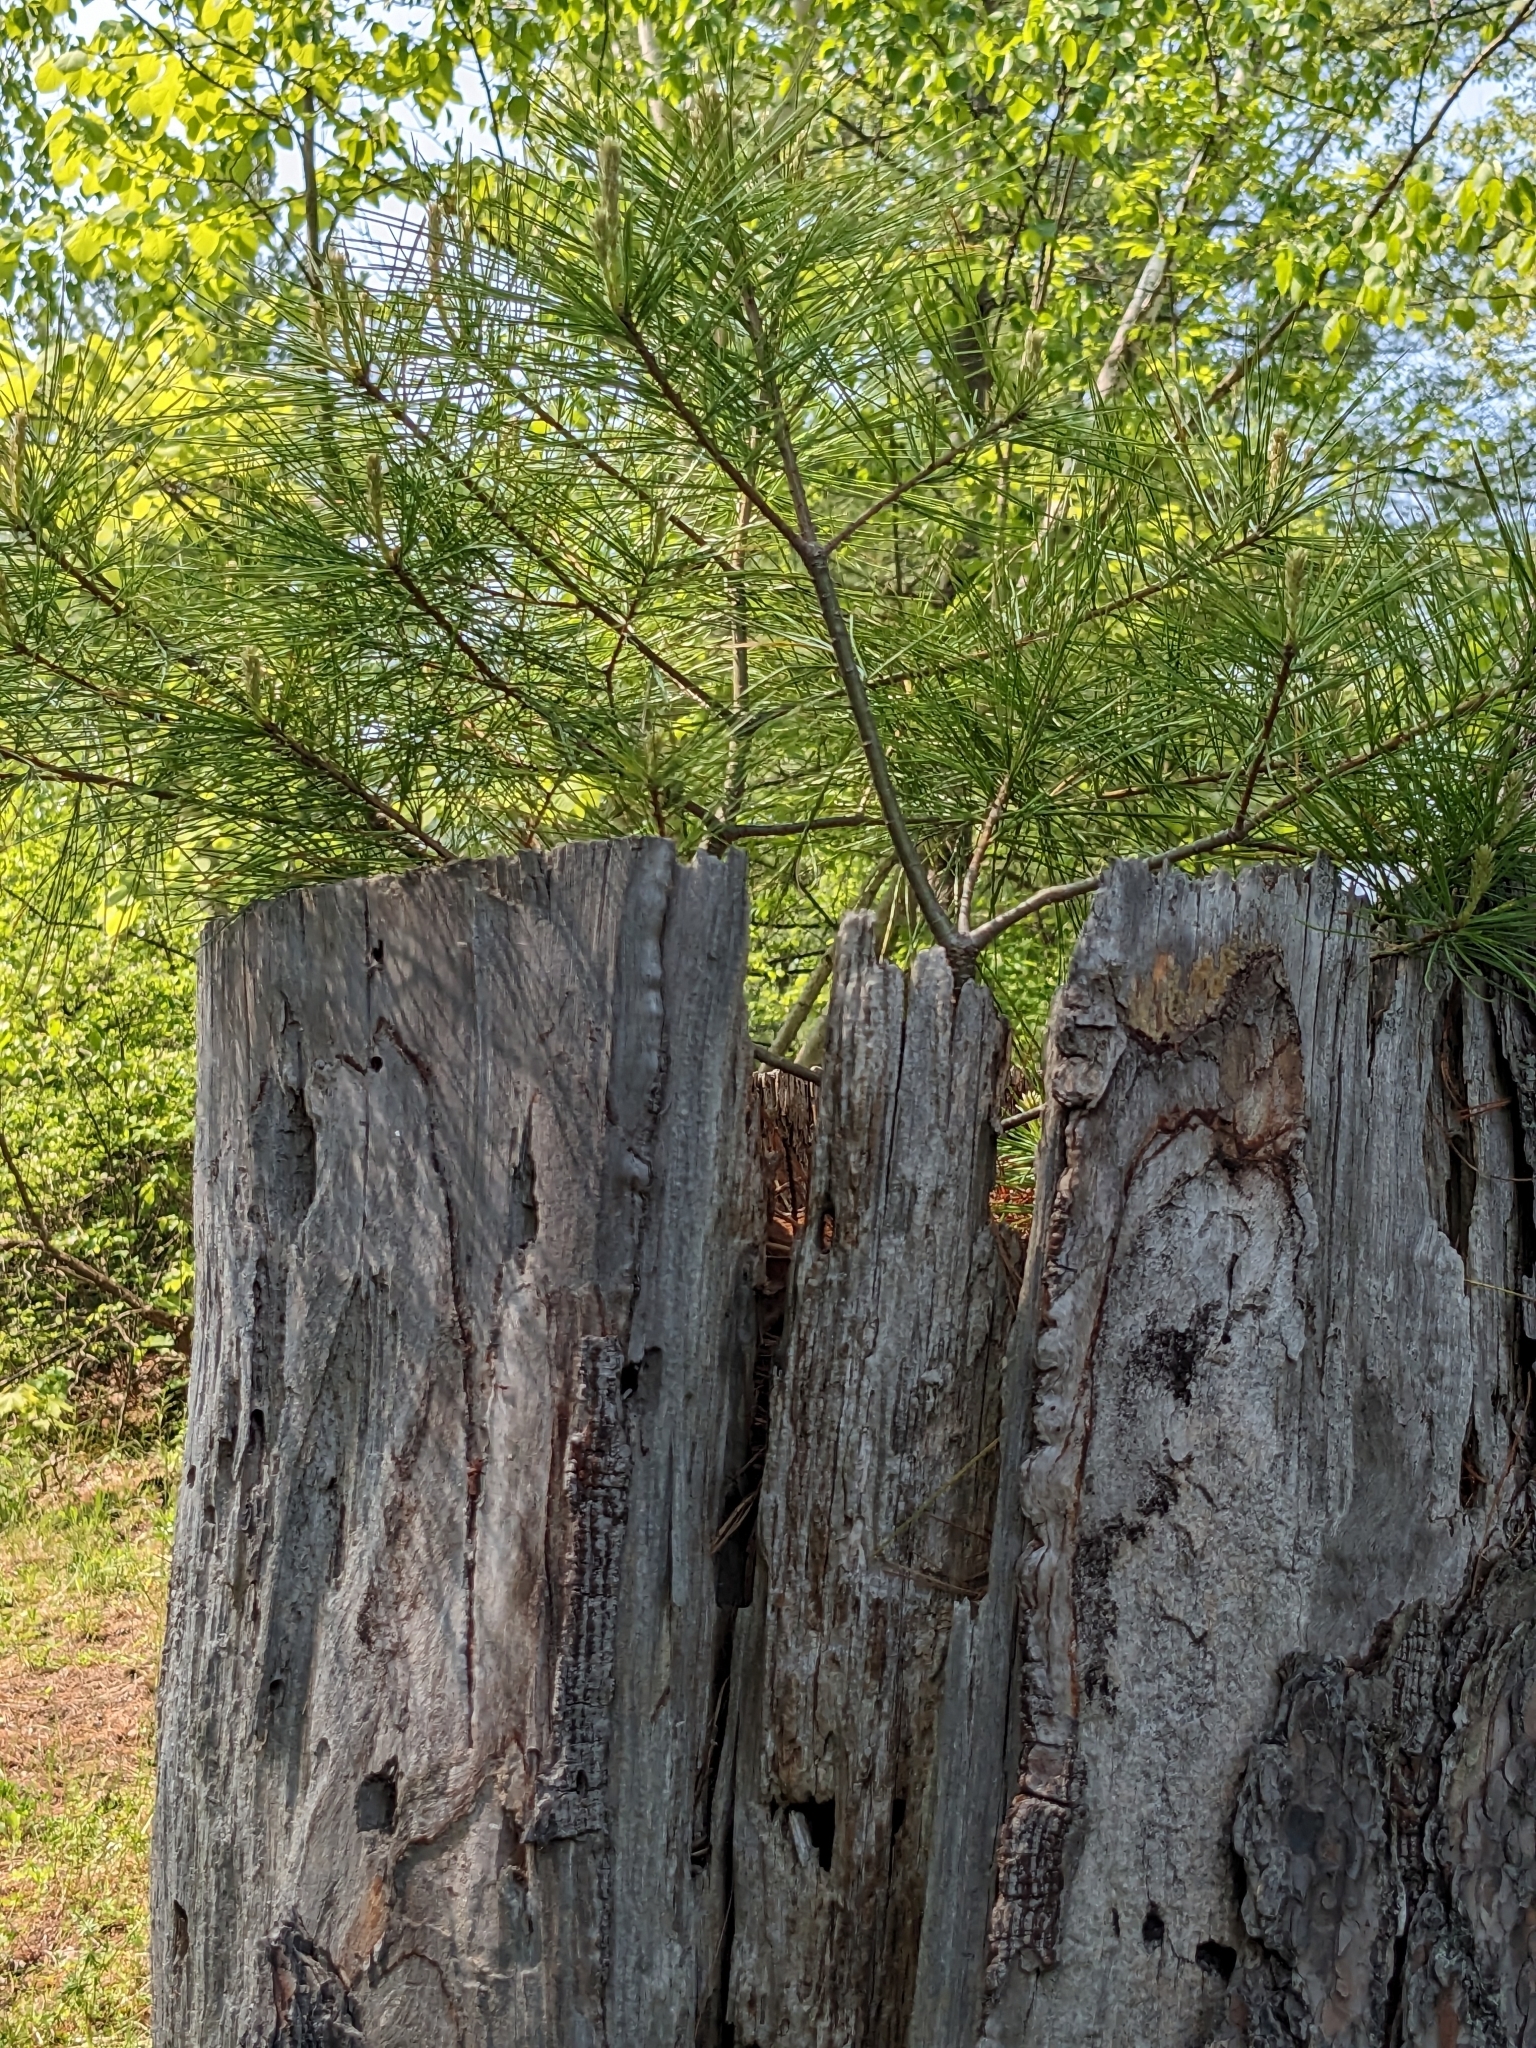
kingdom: Plantae
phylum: Tracheophyta
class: Pinopsida
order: Pinales
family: Pinaceae
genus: Pinus
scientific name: Pinus strobus
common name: Weymouth pine
